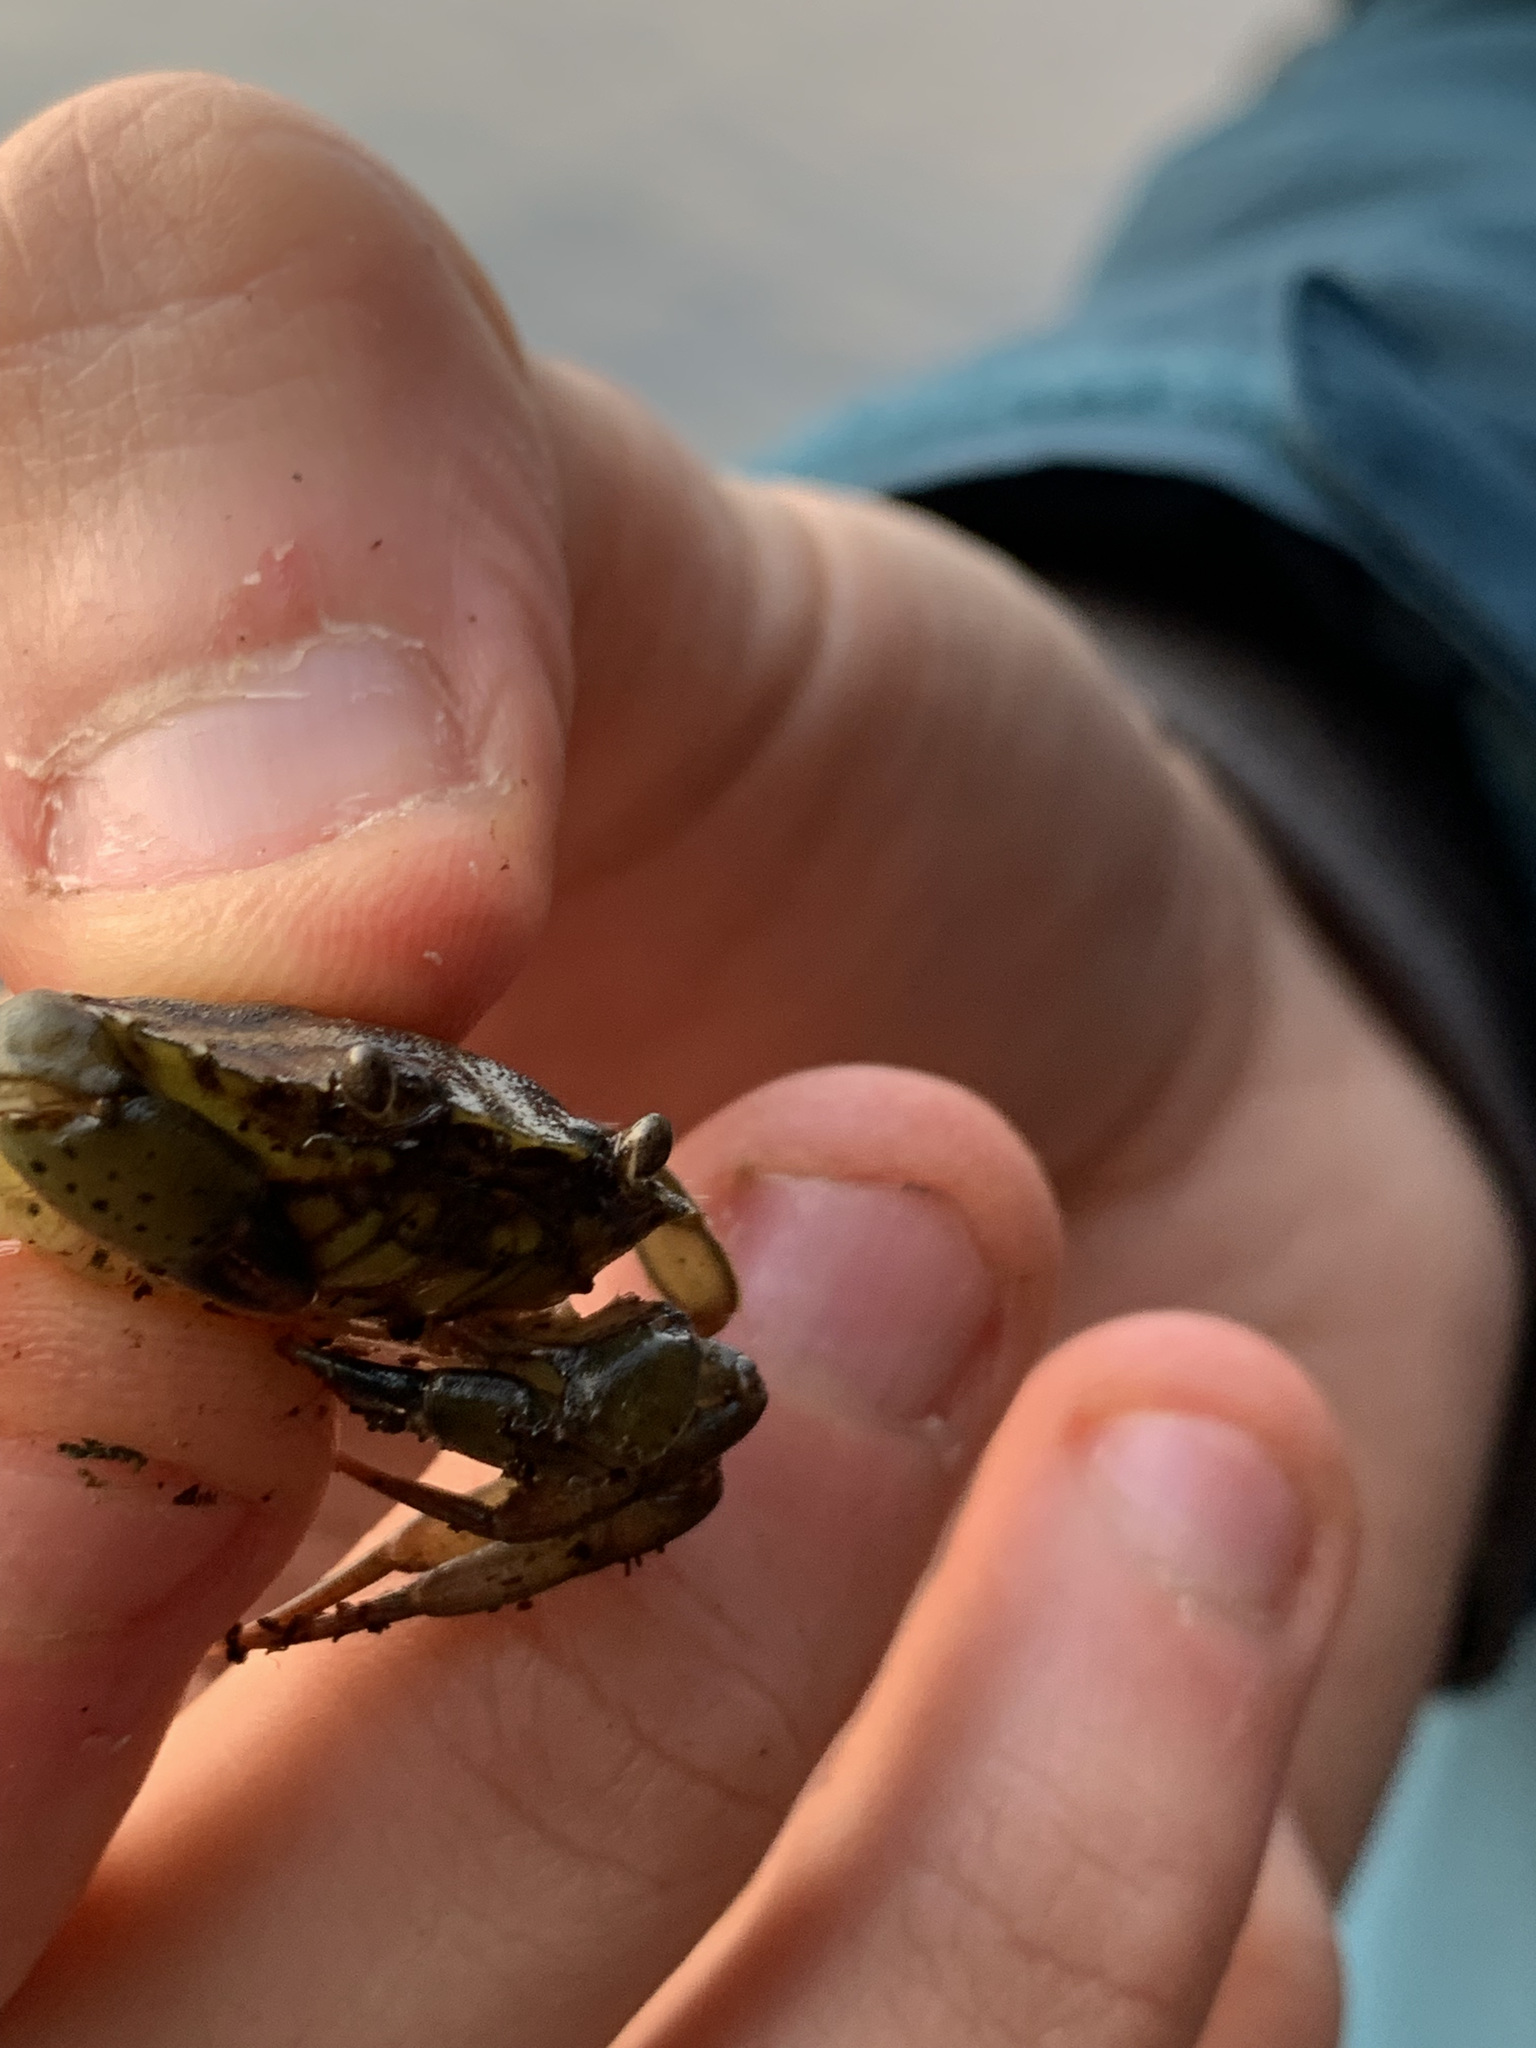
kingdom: Animalia
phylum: Arthropoda
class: Malacostraca
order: Decapoda
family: Carcinidae
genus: Carcinus
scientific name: Carcinus maenas
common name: European green crab
